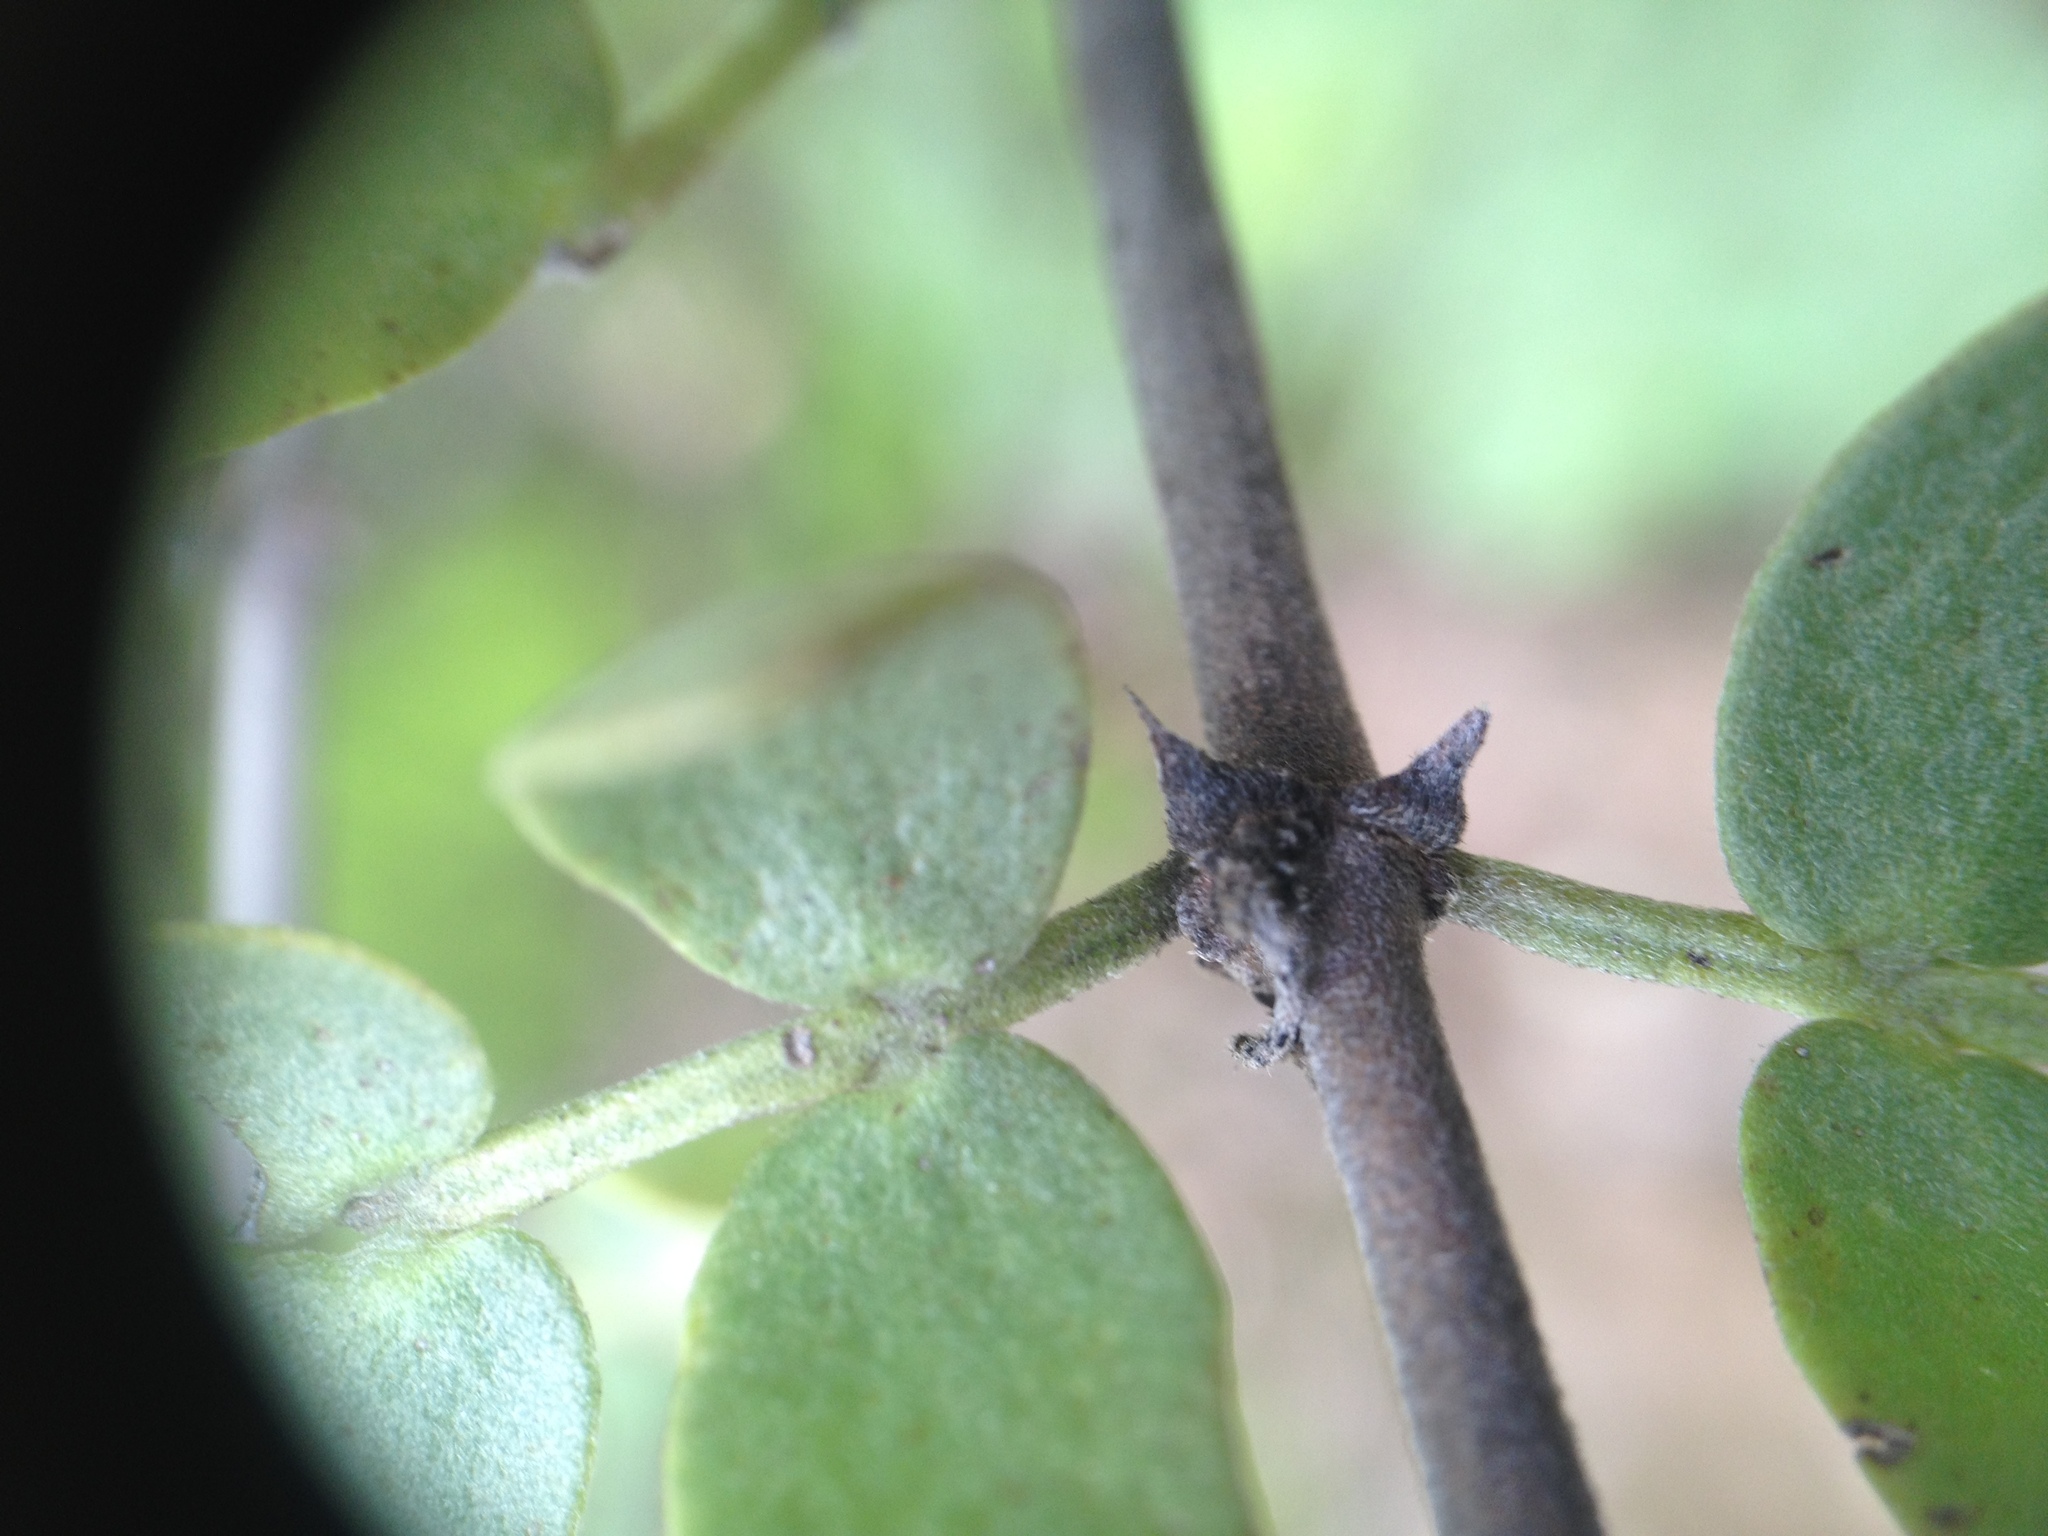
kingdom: Plantae
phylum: Tracheophyta
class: Magnoliopsida
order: Zygophyllales
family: Zygophyllaceae
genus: Bulnesia
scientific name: Bulnesia foliosa
